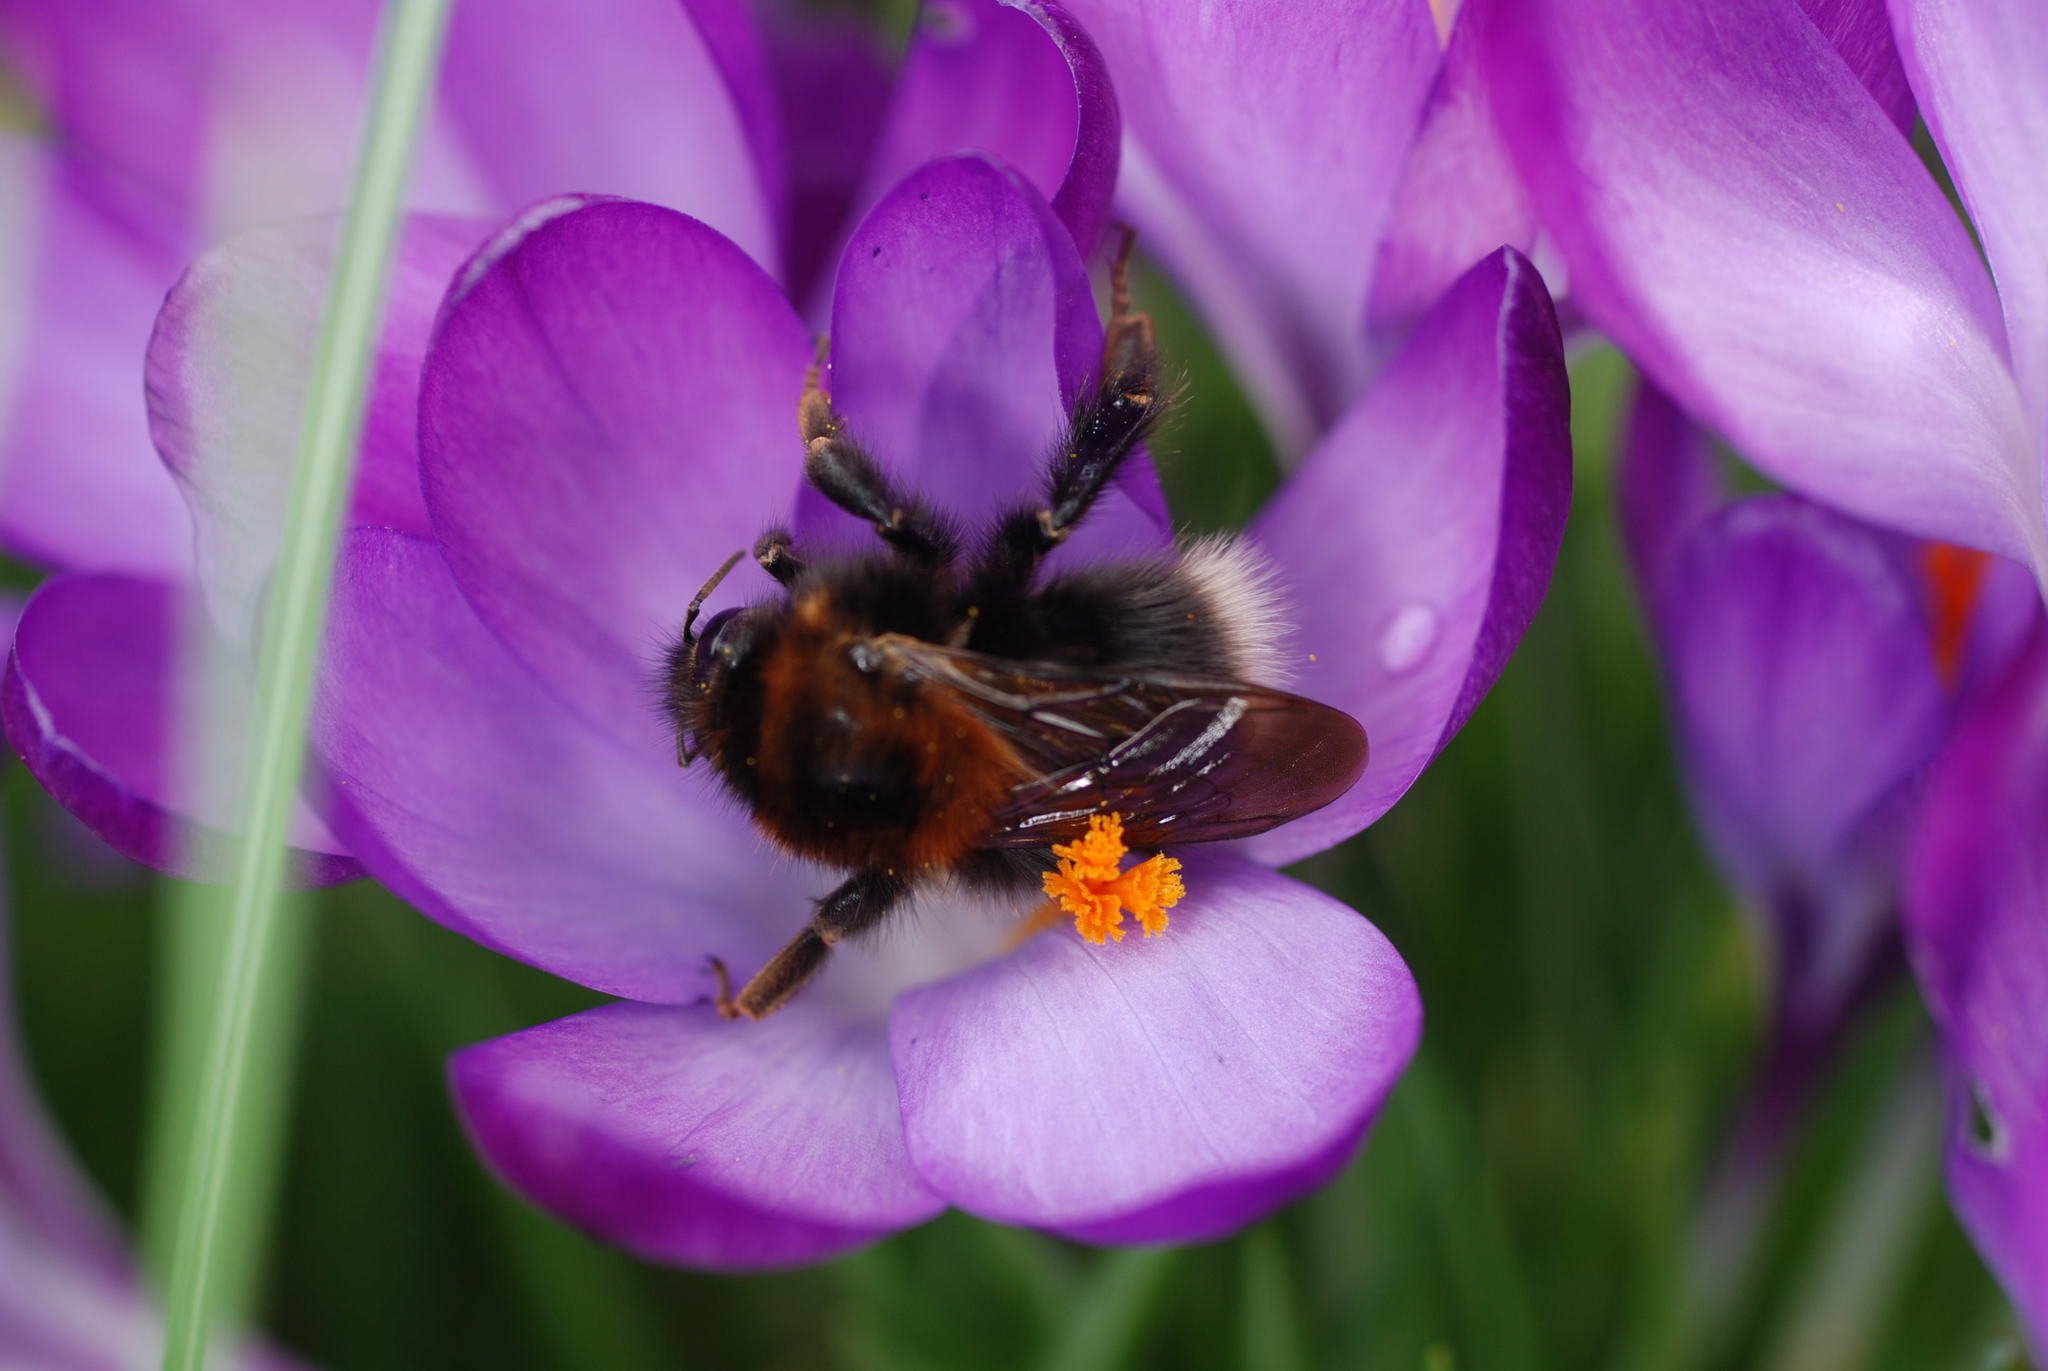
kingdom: Animalia
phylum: Arthropoda
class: Insecta
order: Hymenoptera
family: Apidae
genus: Bombus
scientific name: Bombus hypnorum
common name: New garden bumblebee
